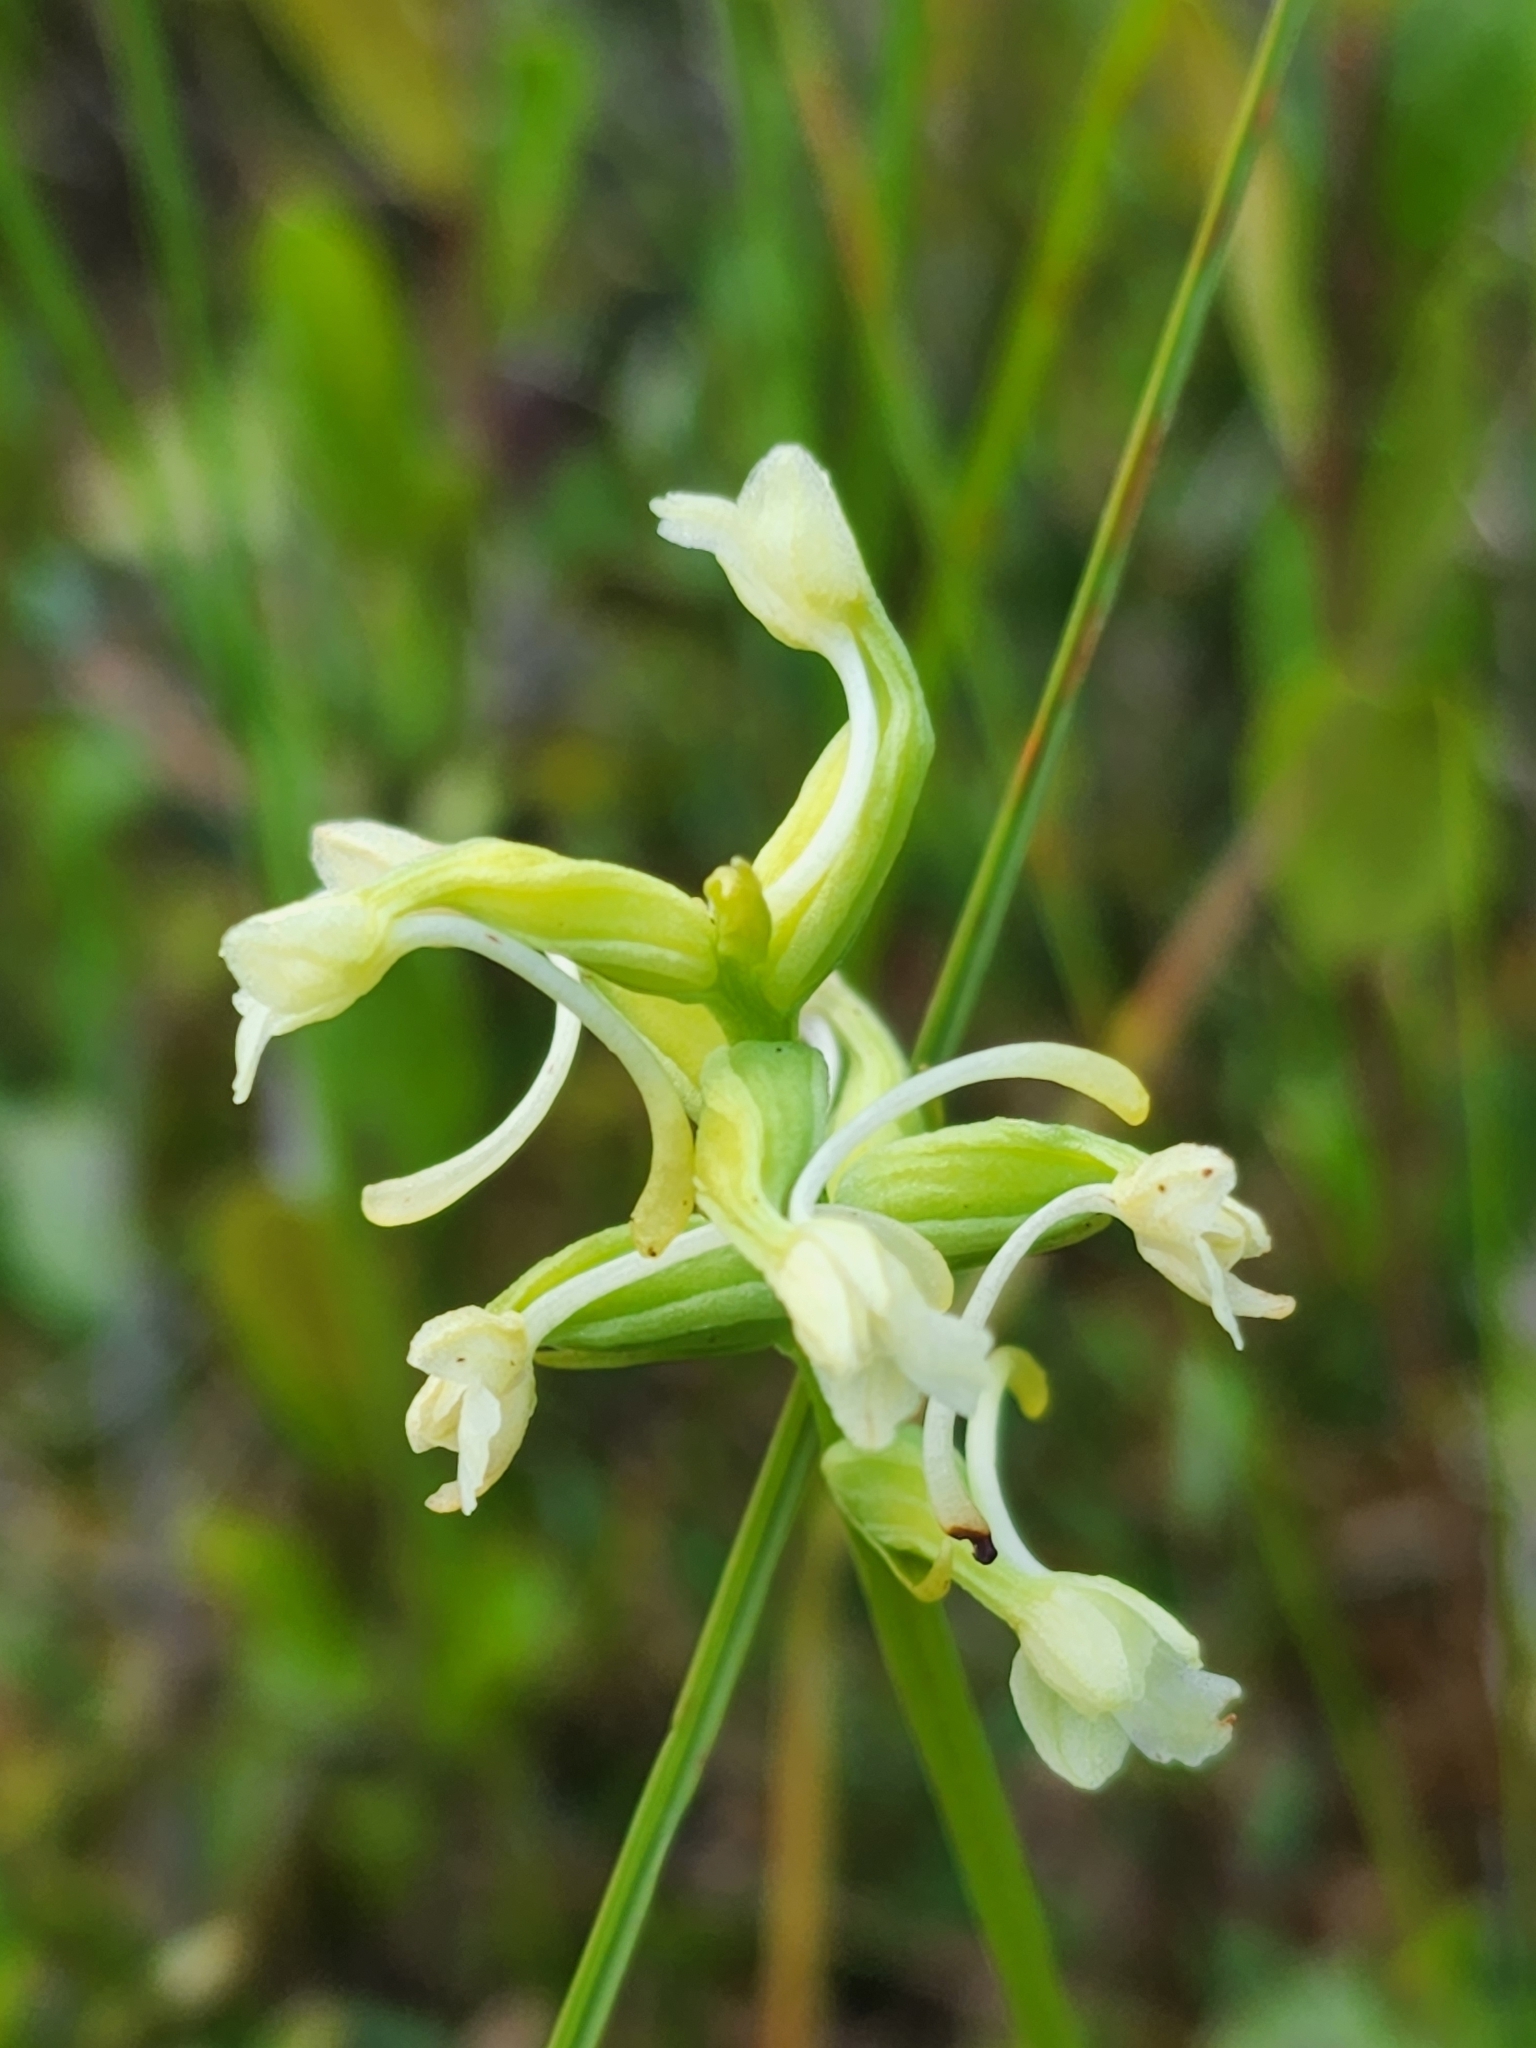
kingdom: Plantae
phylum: Tracheophyta
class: Liliopsida
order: Asparagales
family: Orchidaceae
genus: Platanthera
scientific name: Platanthera clavellata
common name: Club-spur orchid
